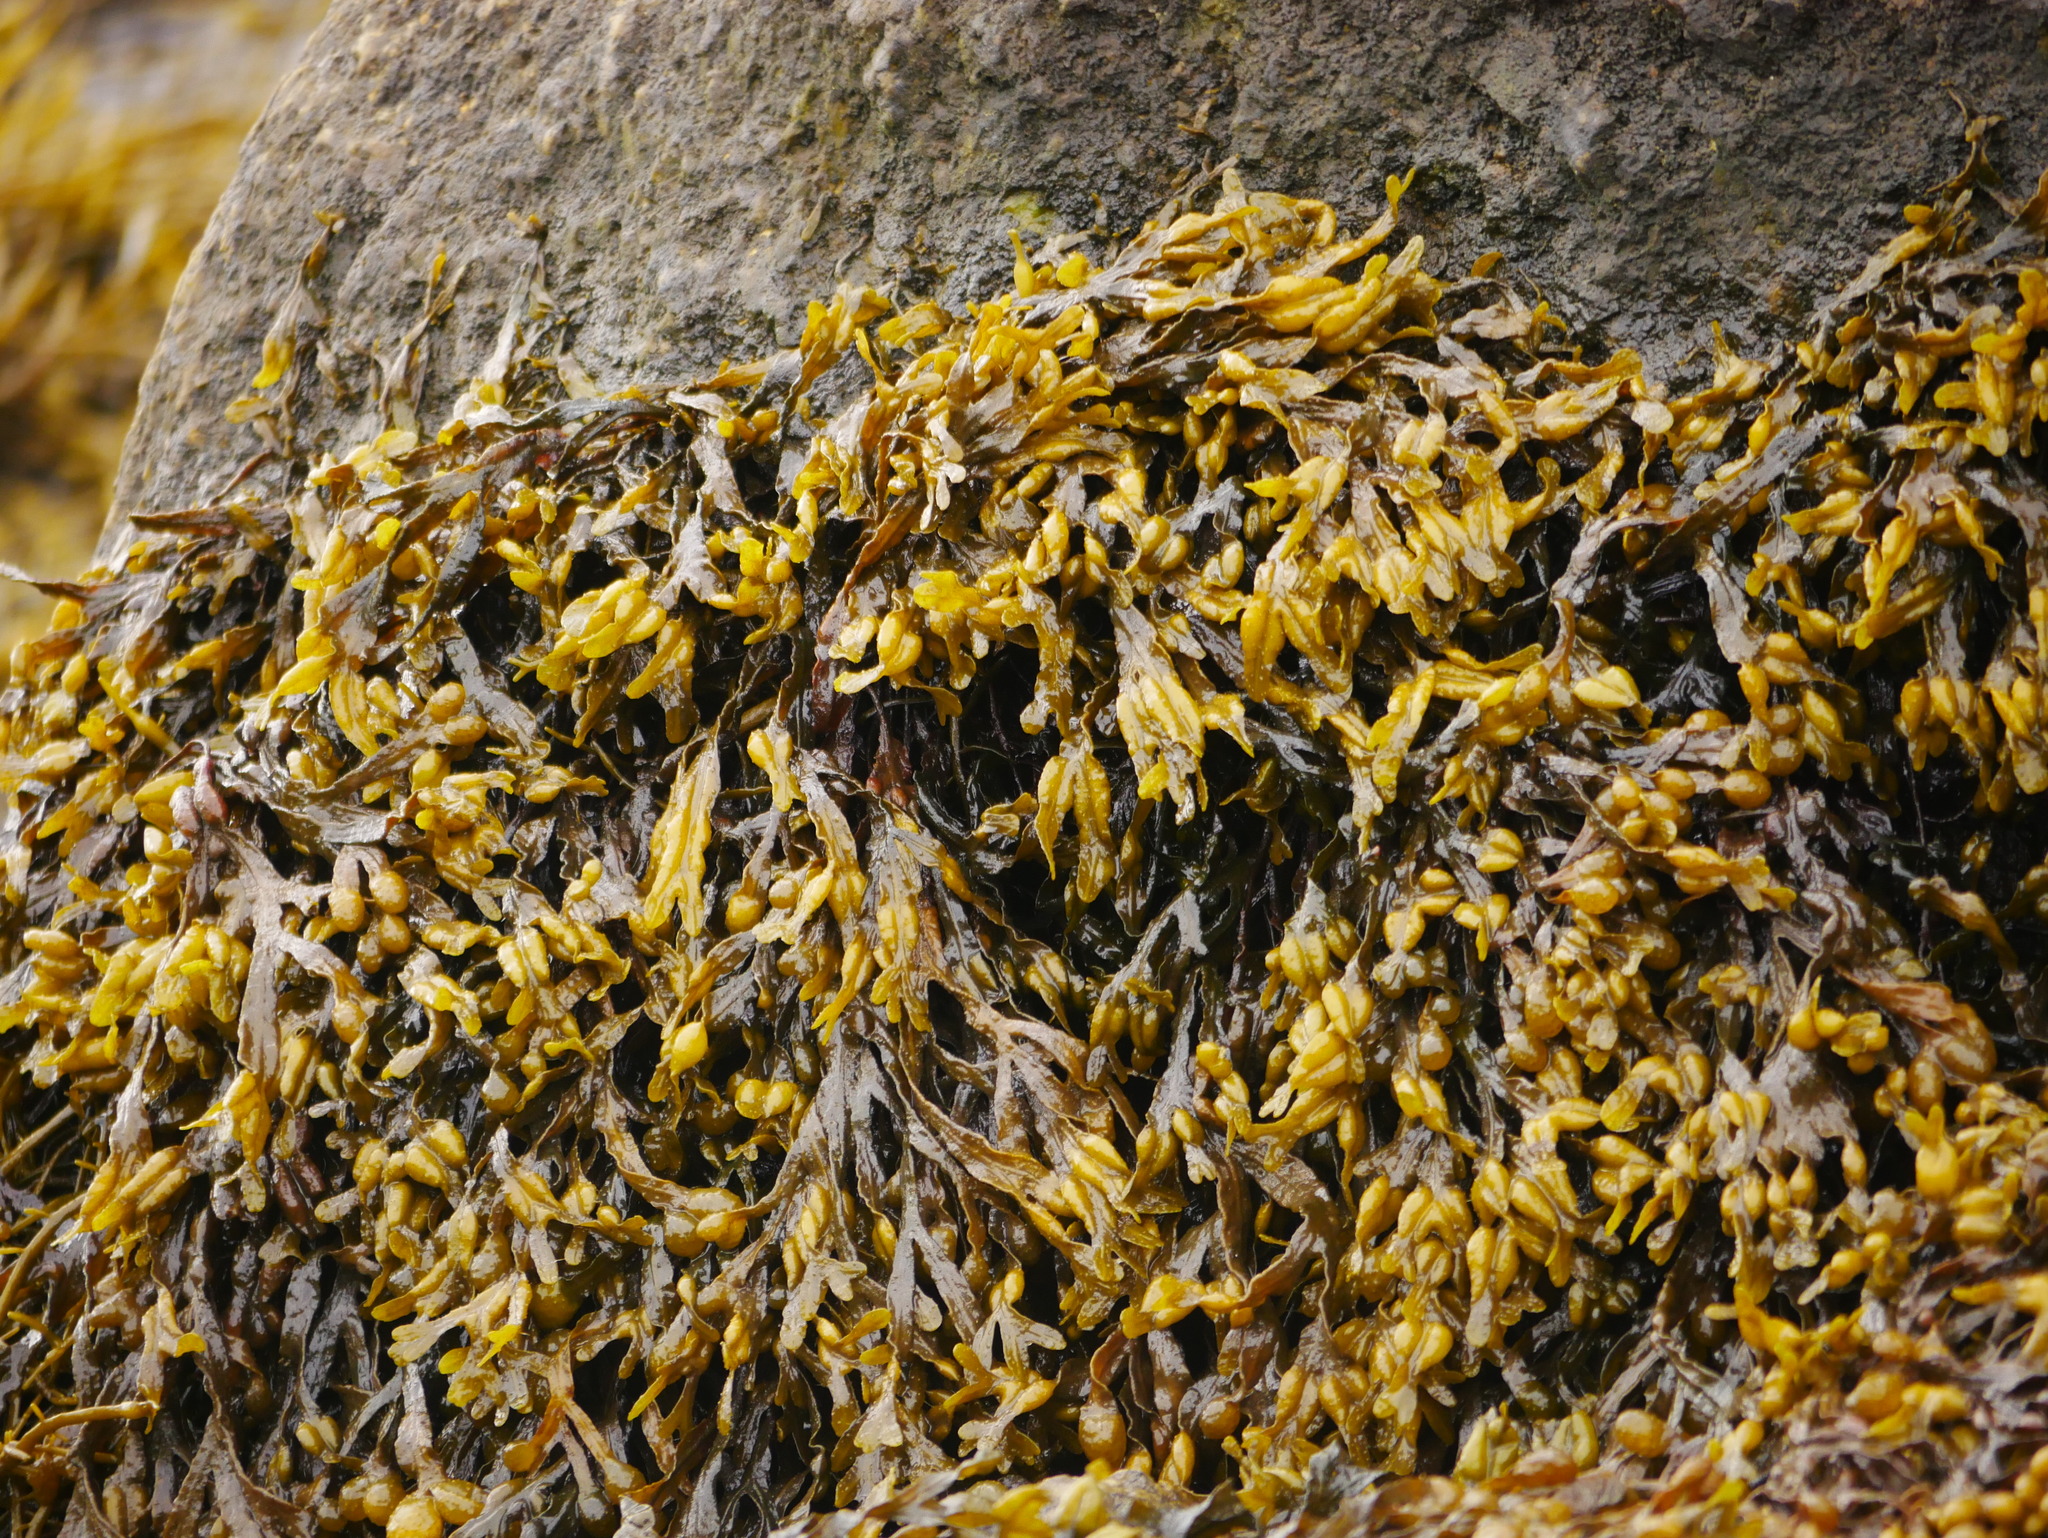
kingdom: Chromista
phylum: Ochrophyta
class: Phaeophyceae
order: Fucales
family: Fucaceae
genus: Fucus
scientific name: Fucus vesiculosus
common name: Bladder wrack
